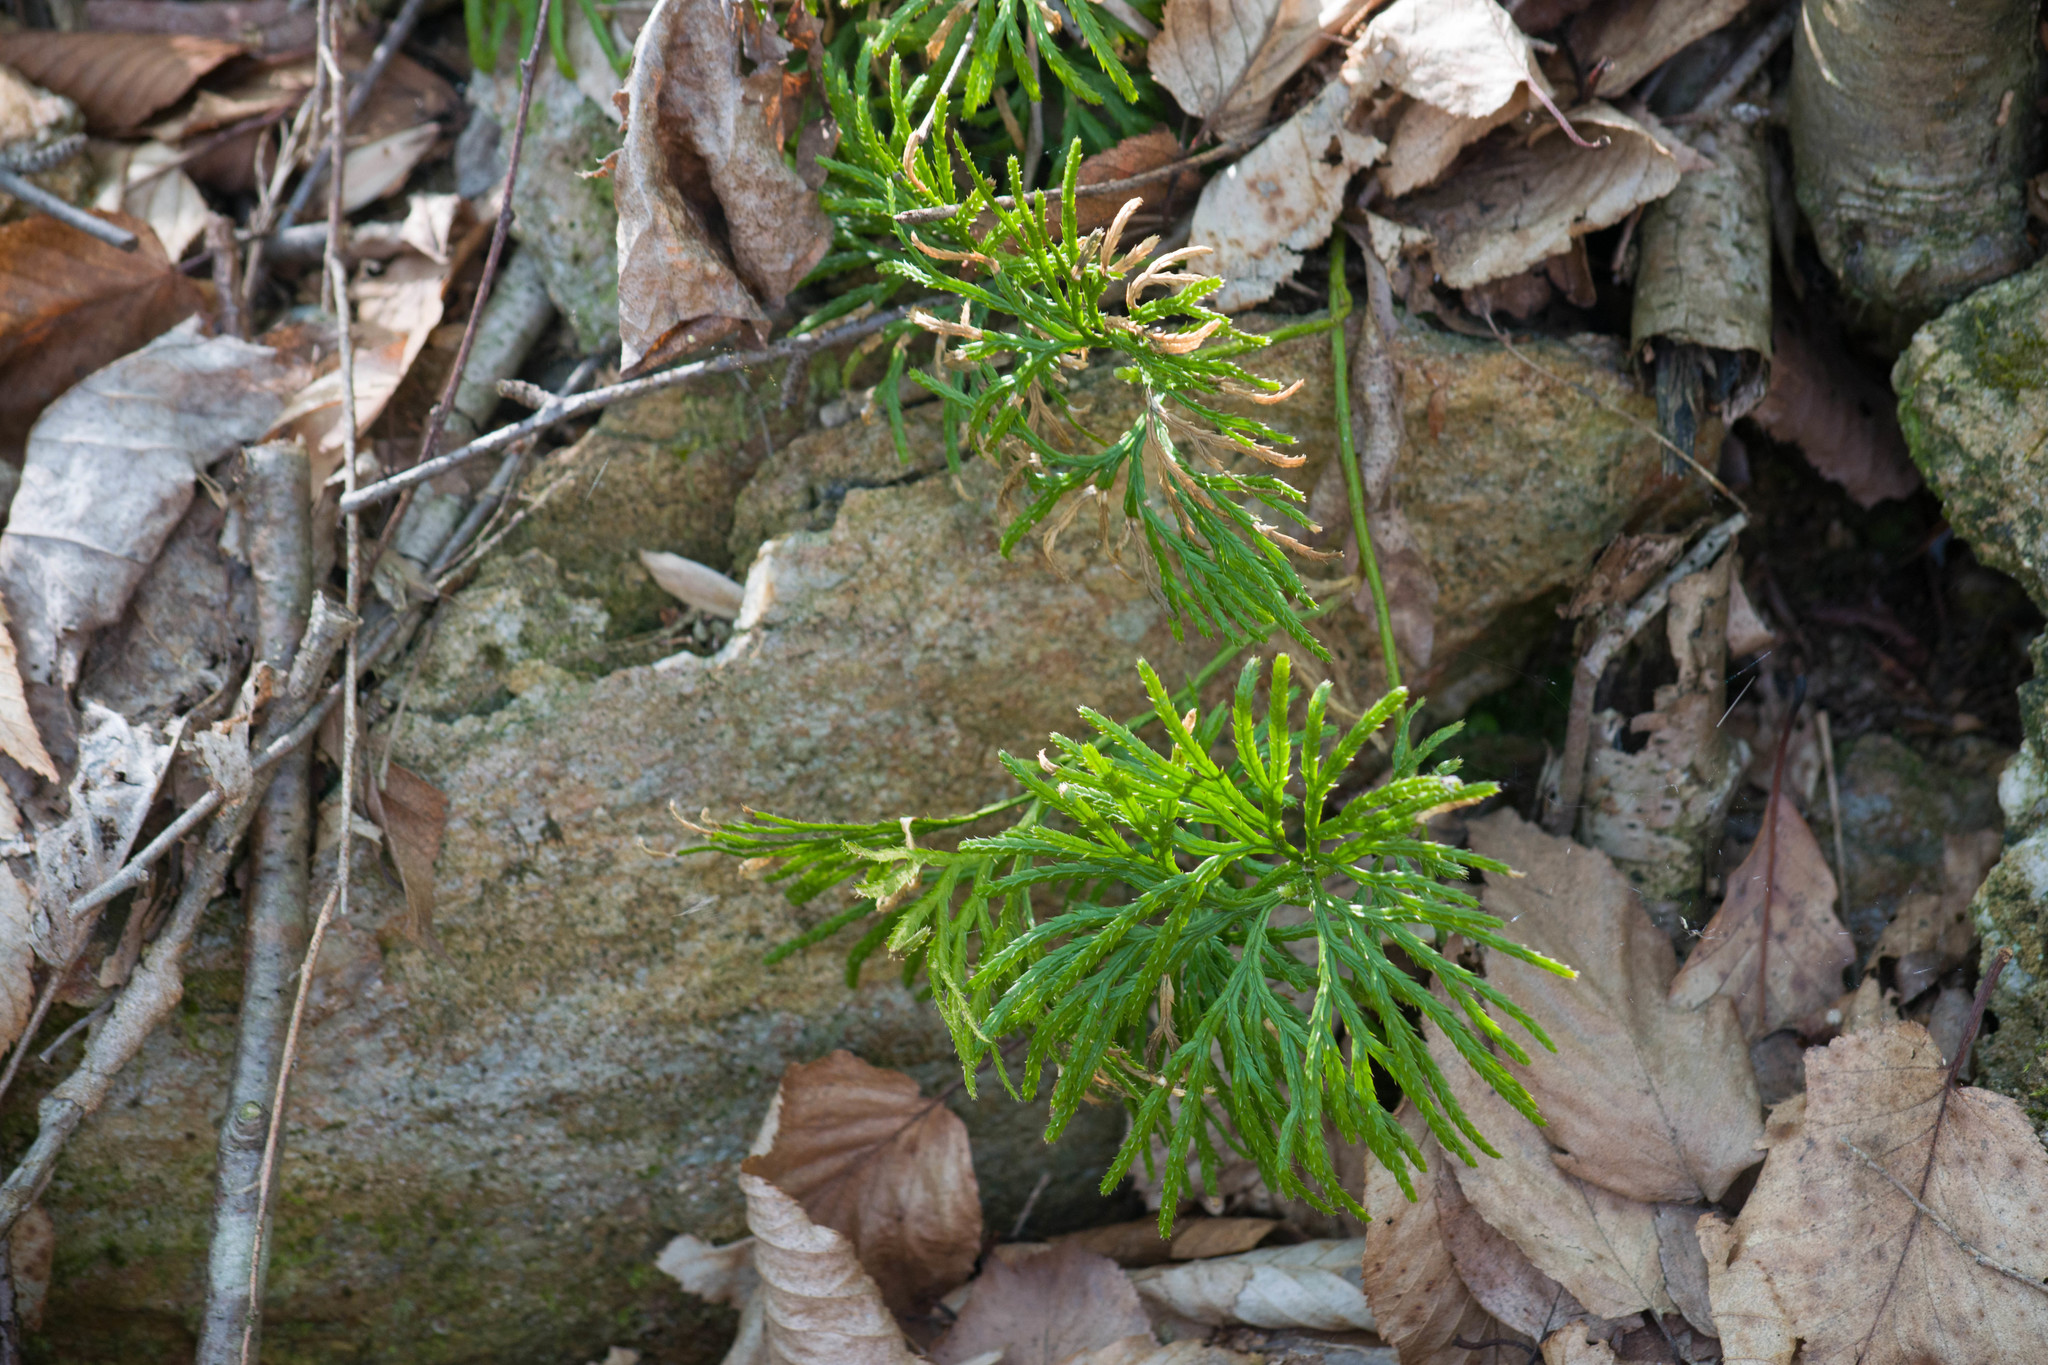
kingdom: Plantae
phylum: Tracheophyta
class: Lycopodiopsida
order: Lycopodiales
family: Lycopodiaceae
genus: Diphasiastrum
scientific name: Diphasiastrum digitatum
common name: Southern running-pine
